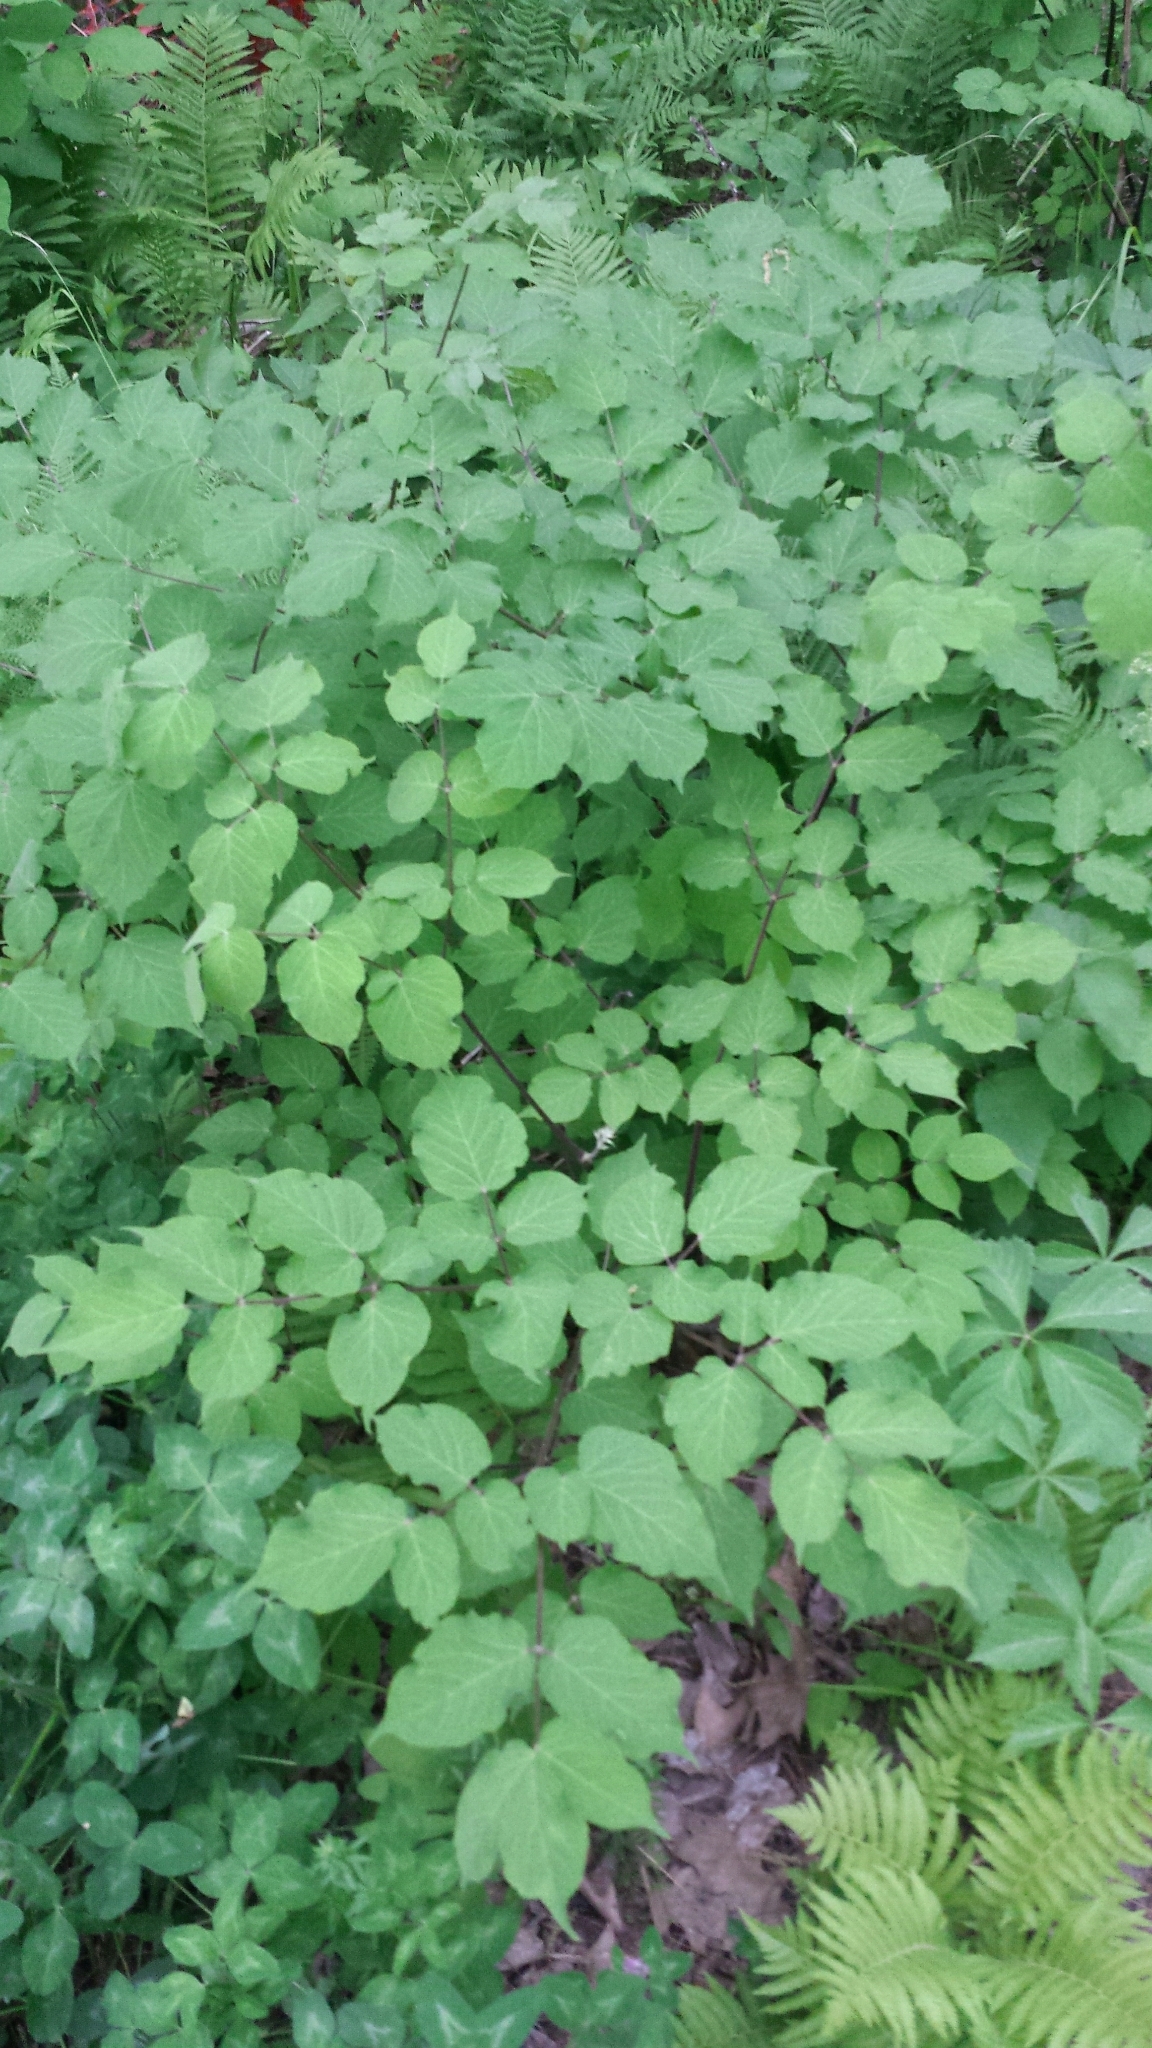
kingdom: Plantae
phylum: Tracheophyta
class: Magnoliopsida
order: Apiales
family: Araliaceae
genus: Aralia
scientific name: Aralia racemosa
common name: American-spikenard
